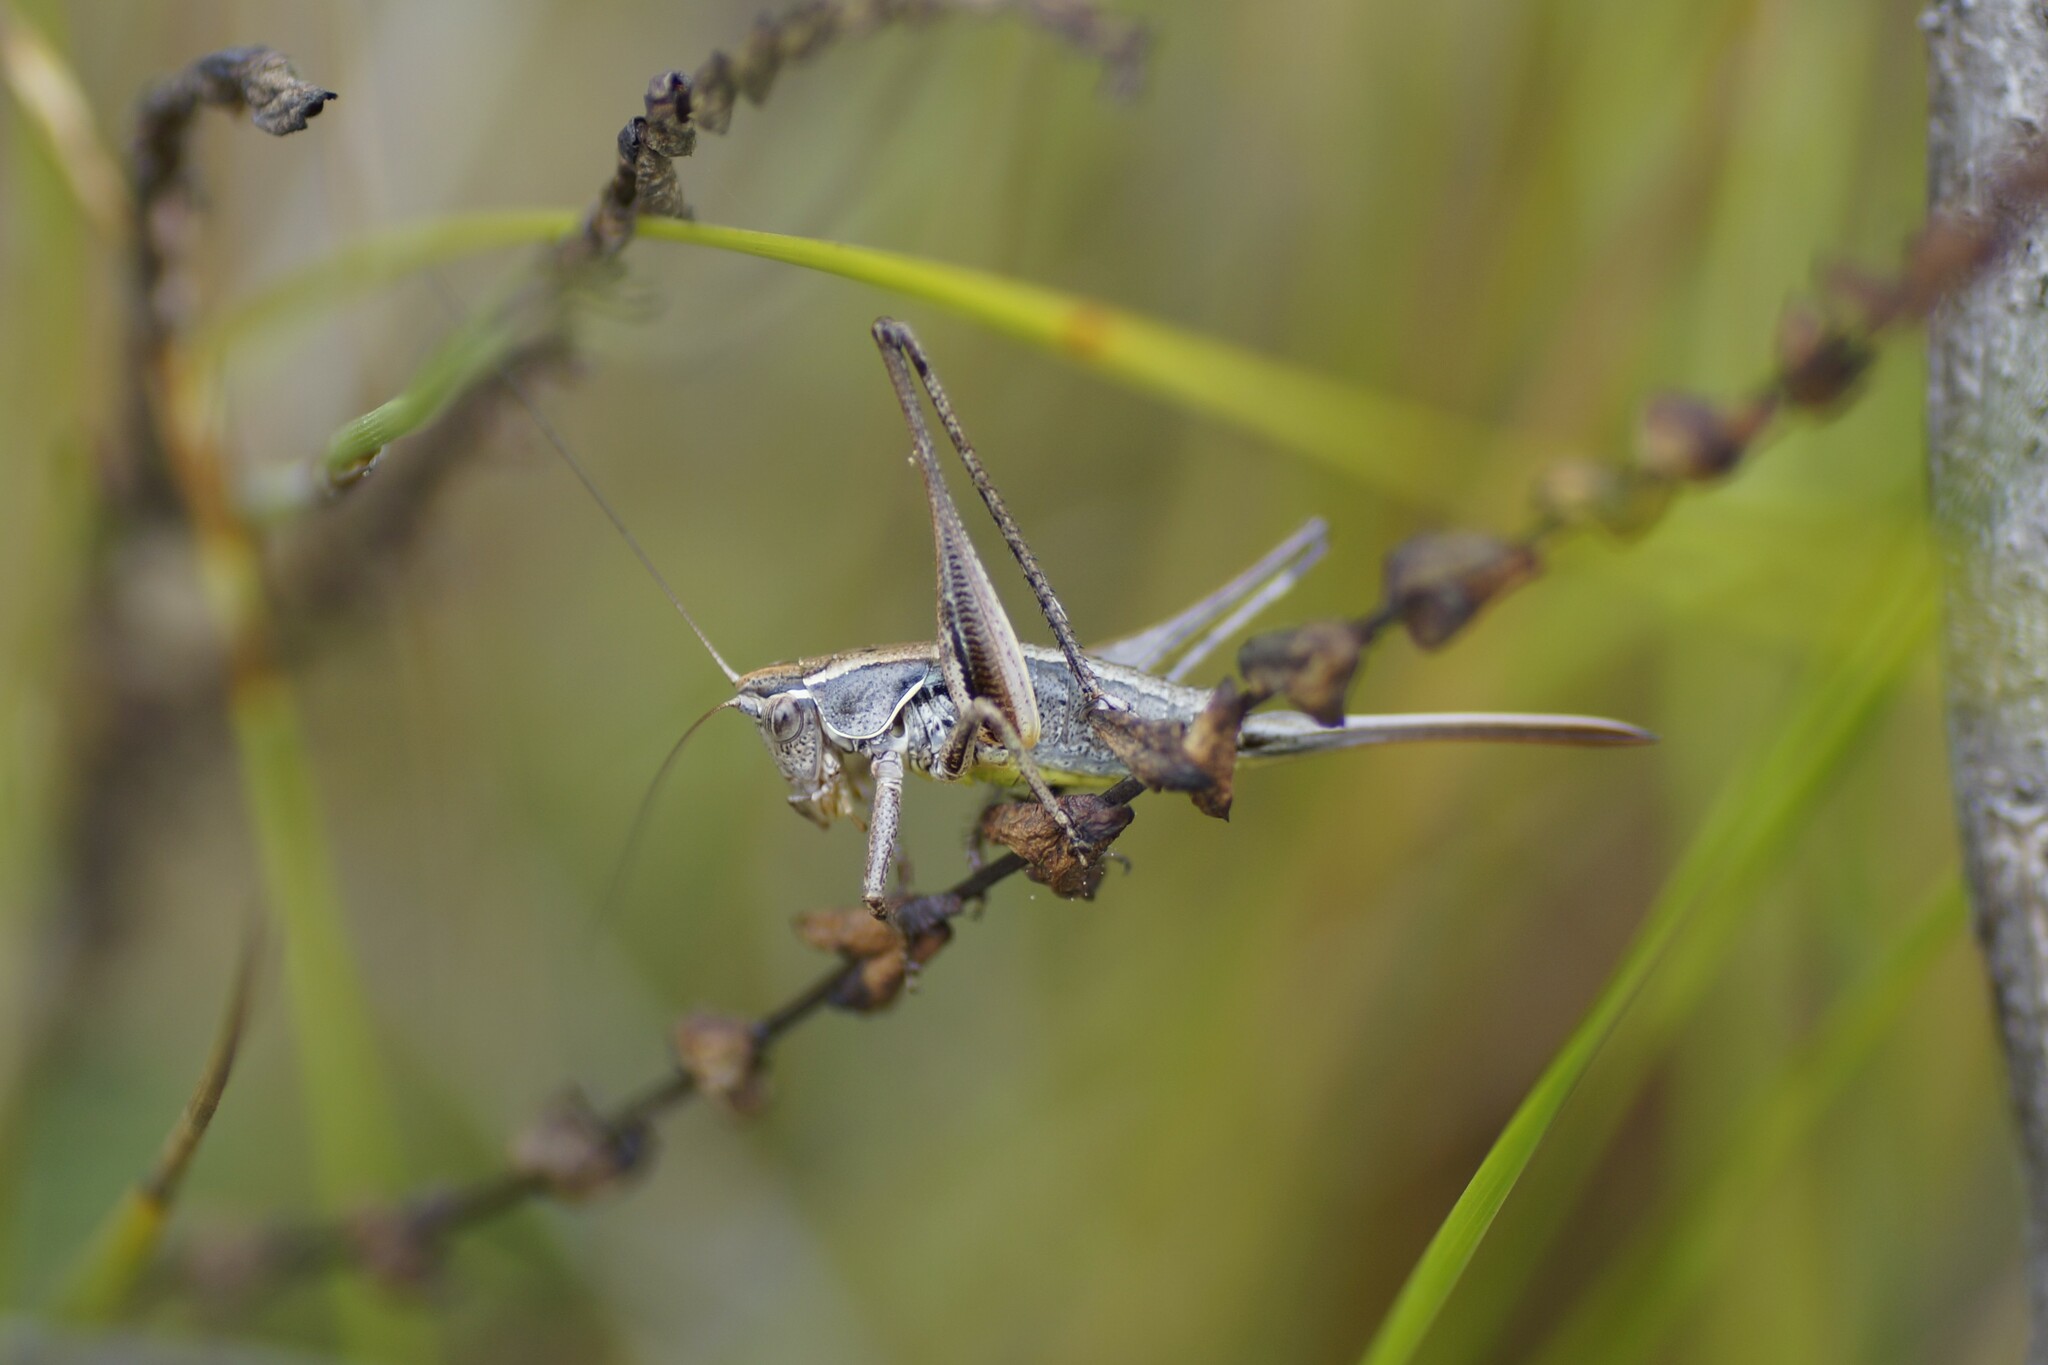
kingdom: Animalia
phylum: Arthropoda
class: Insecta
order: Orthoptera
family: Tettigoniidae
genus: Nanodectes
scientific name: Nanodectes veprephila
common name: Heath-dwelling shield-back
